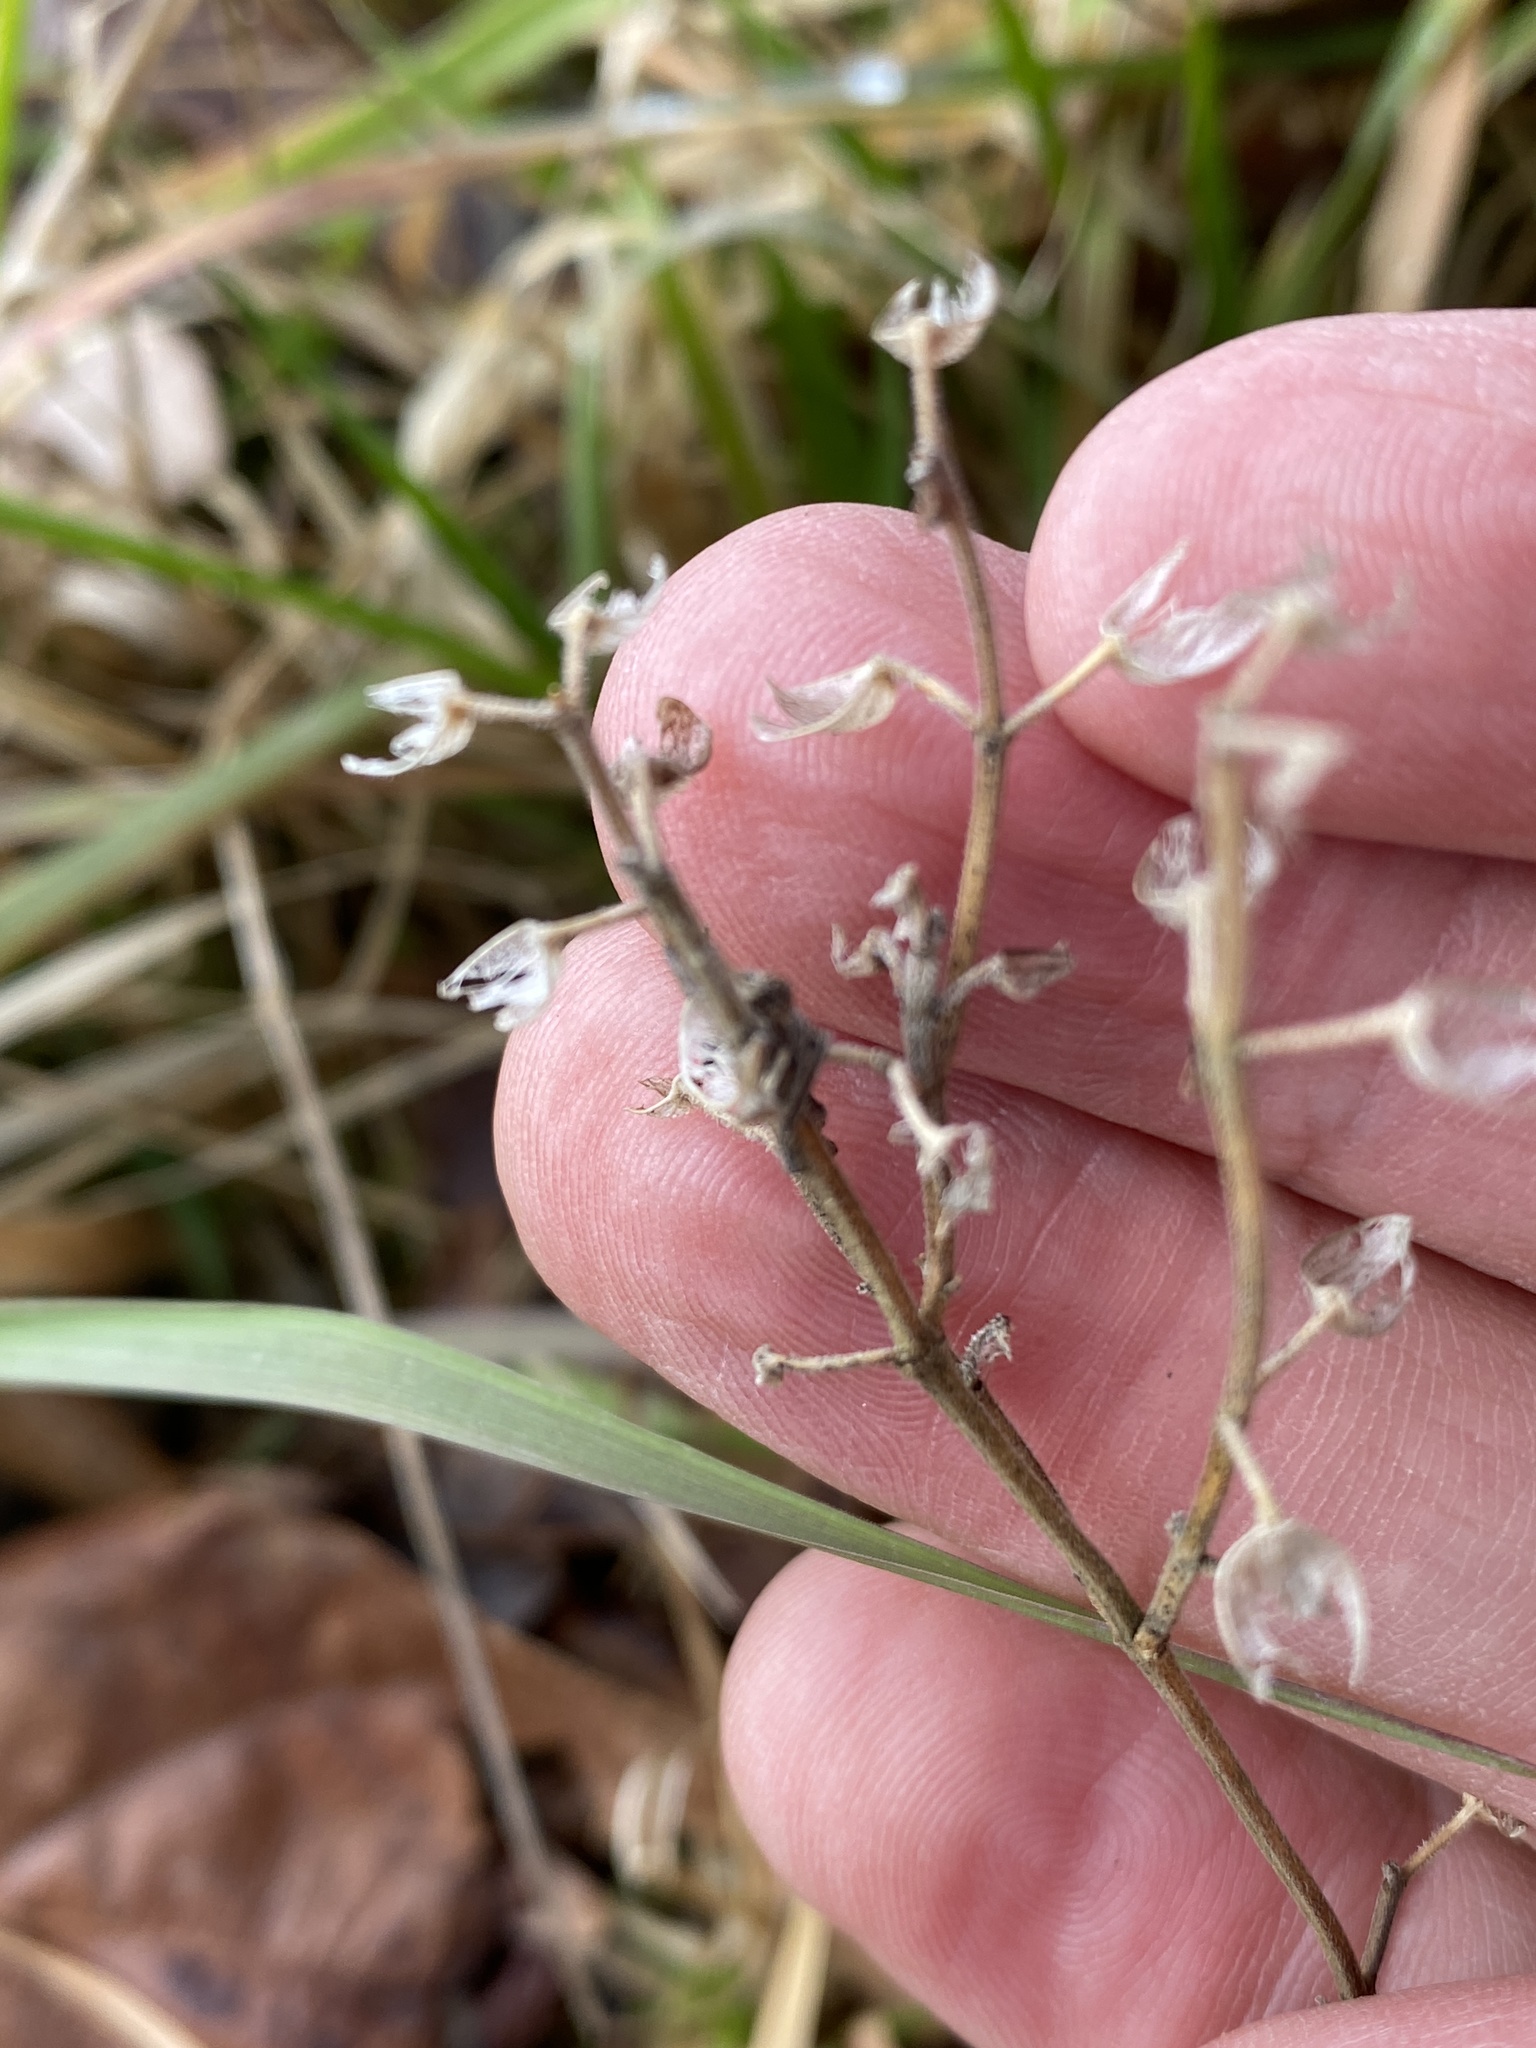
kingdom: Plantae
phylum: Tracheophyta
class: Magnoliopsida
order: Lamiales
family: Lamiaceae
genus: Scutellaria
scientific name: Scutellaria integrifolia
